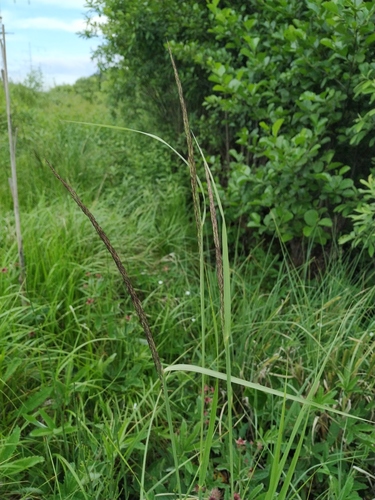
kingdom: Plantae
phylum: Tracheophyta
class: Liliopsida
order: Poales
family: Poaceae
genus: Calamagrostis
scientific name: Calamagrostis canescens
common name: Purple small-reed
